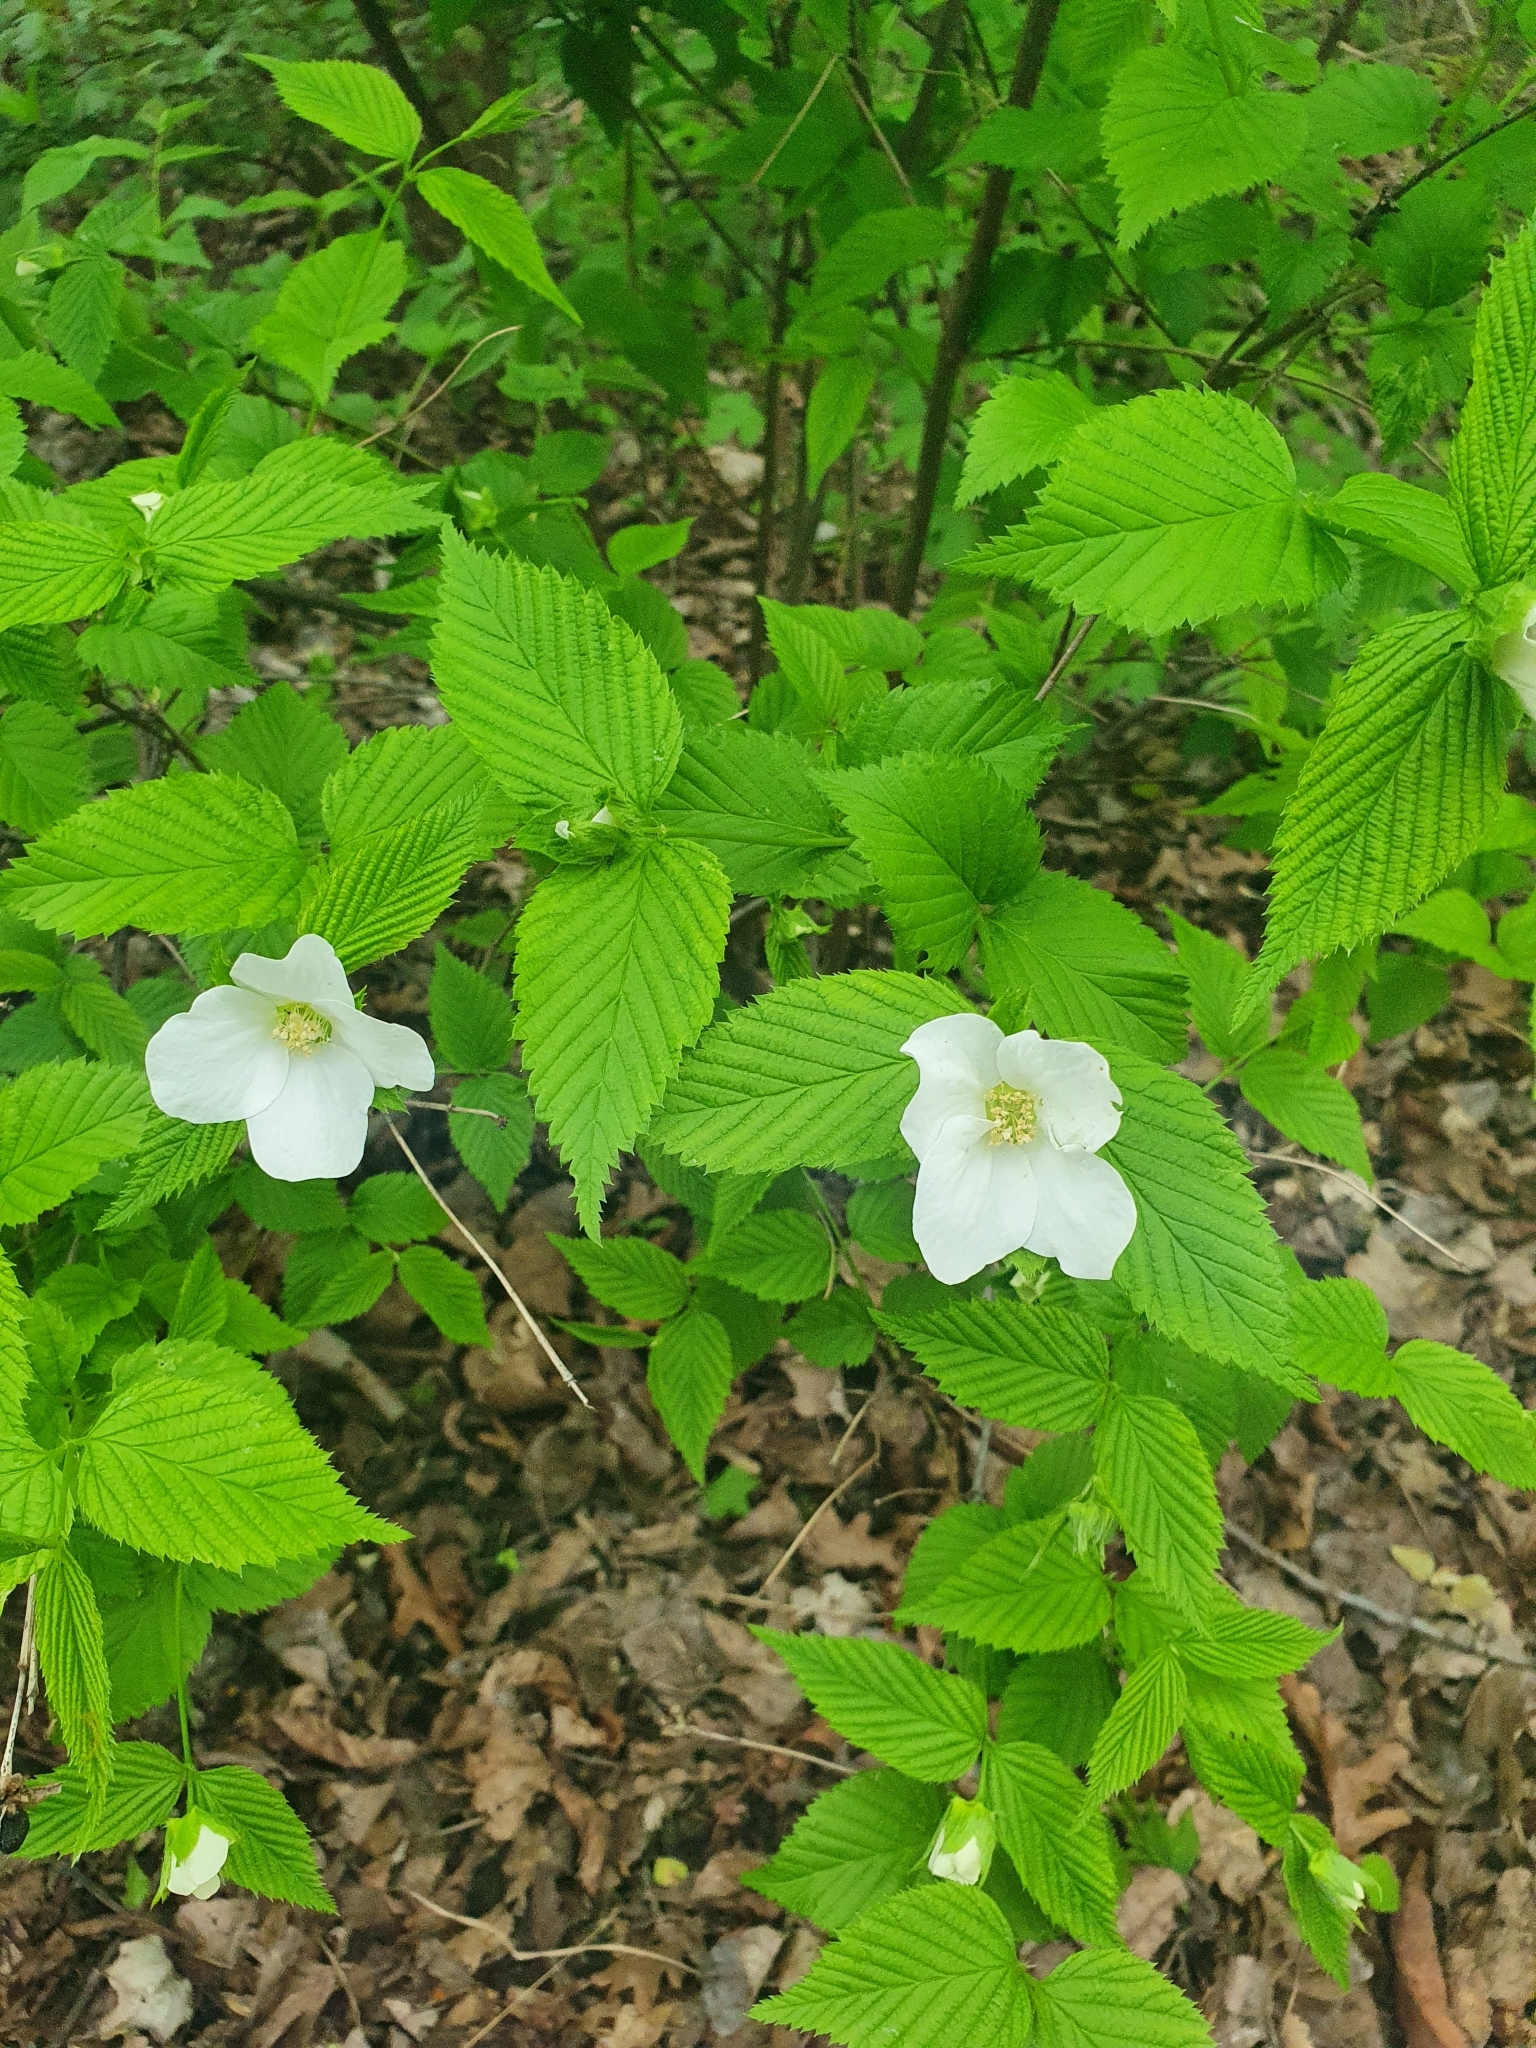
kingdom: Plantae
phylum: Tracheophyta
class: Magnoliopsida
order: Rosales
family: Rosaceae
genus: Rhodotypos
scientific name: Rhodotypos scandens
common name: Jetbead
